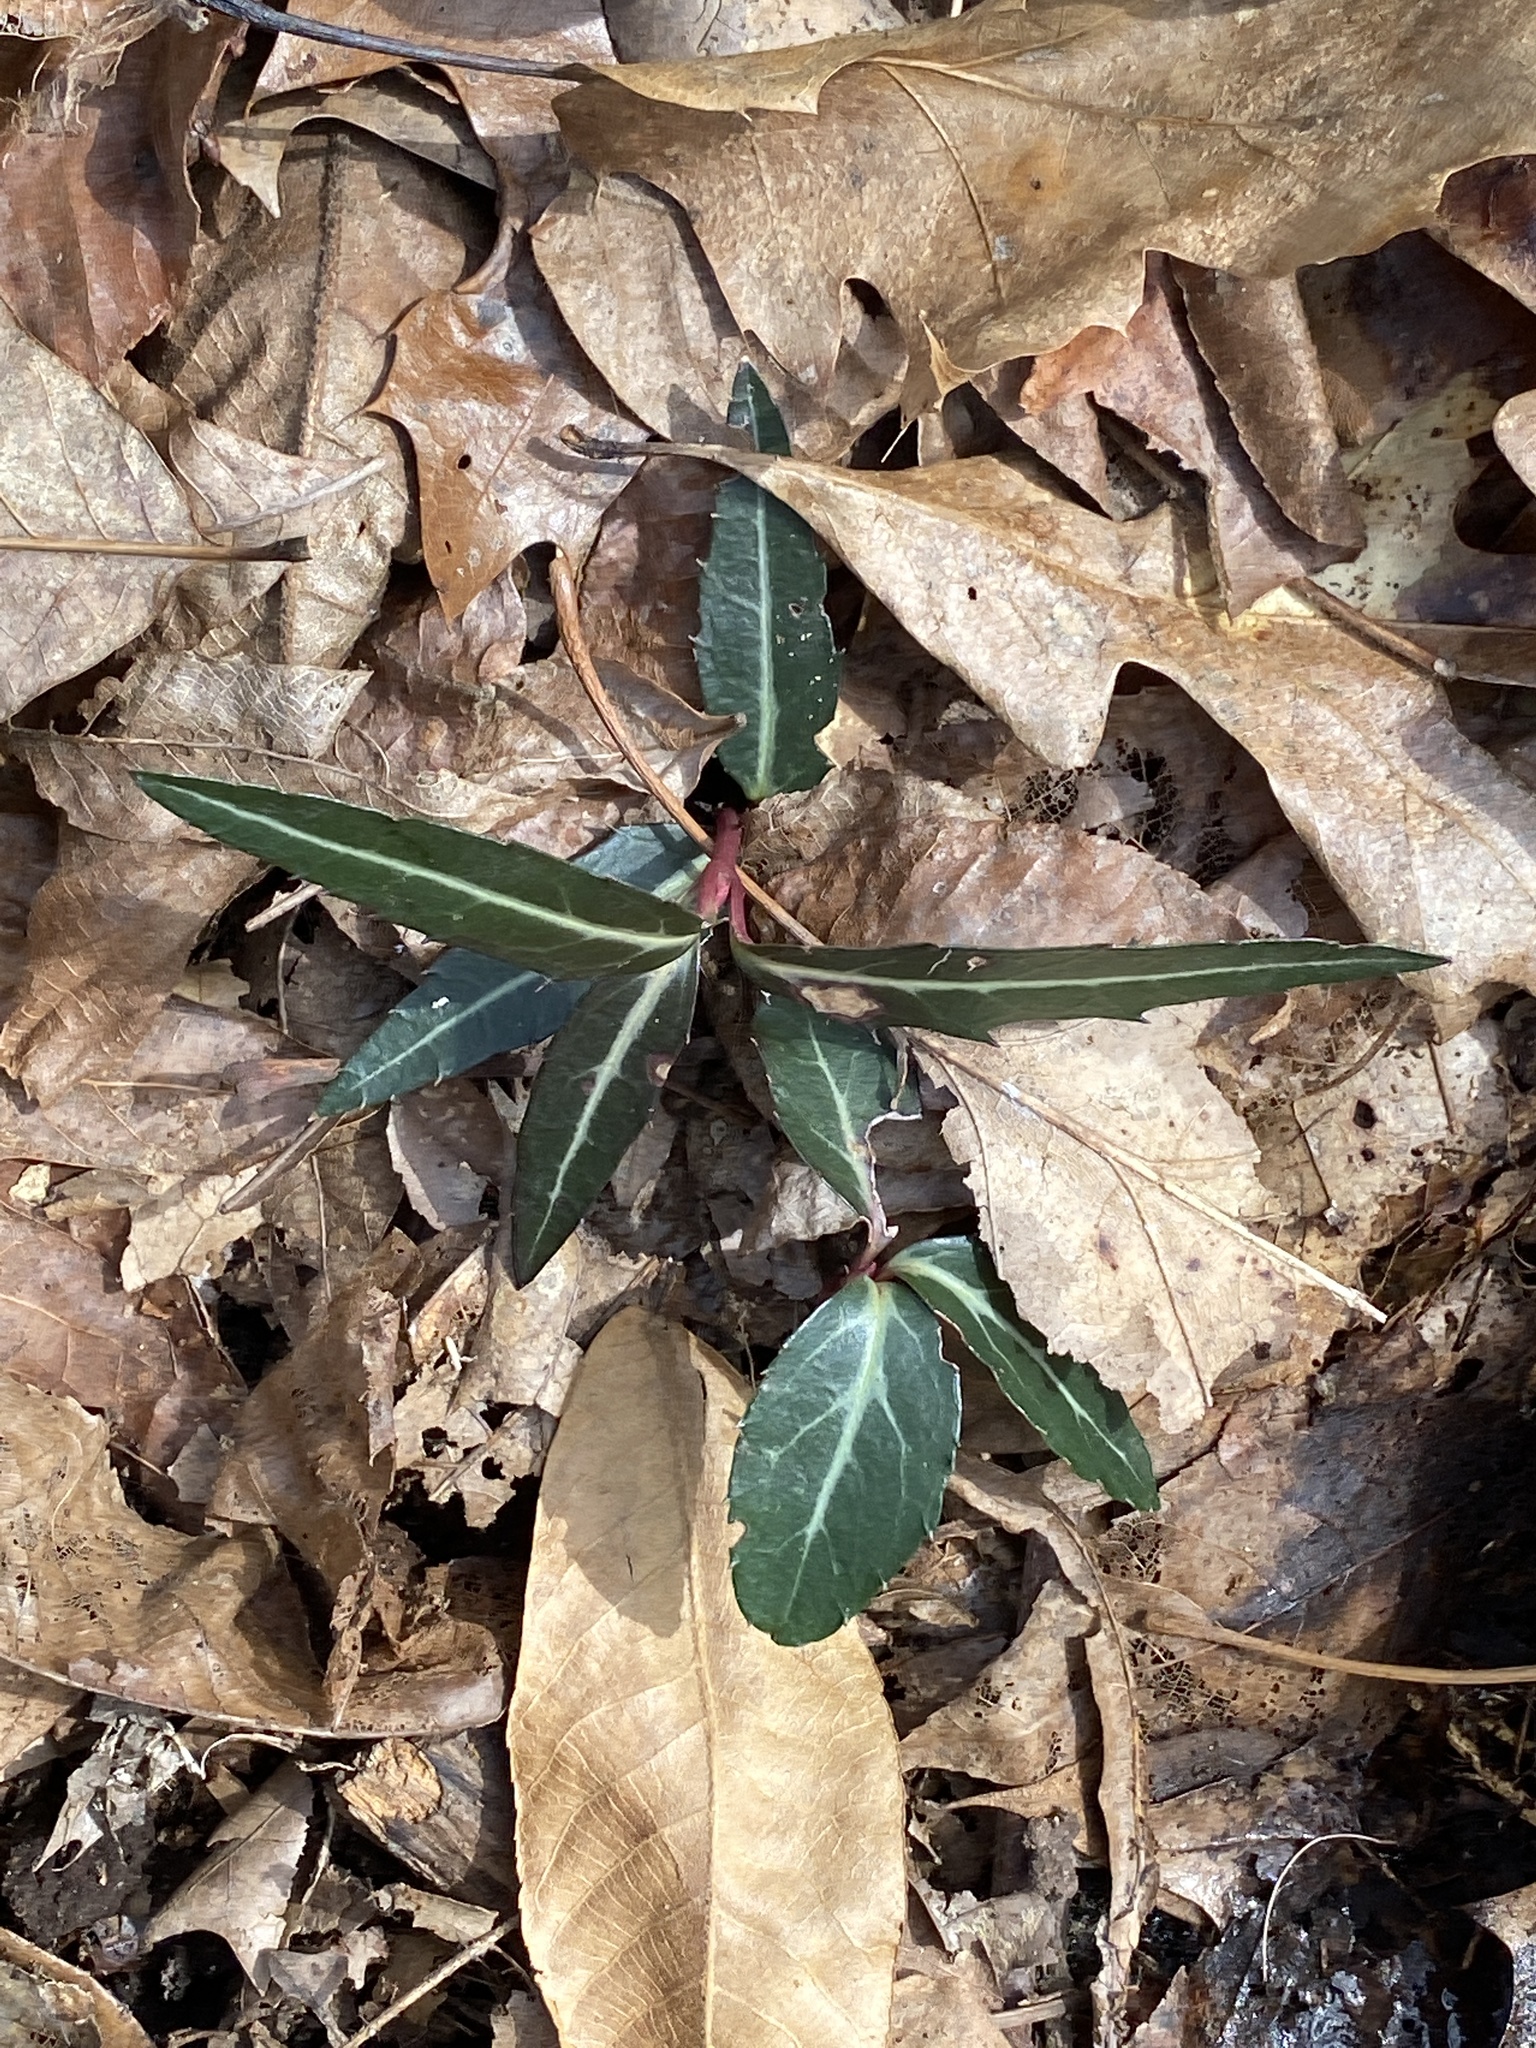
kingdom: Plantae
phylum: Tracheophyta
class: Magnoliopsida
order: Ericales
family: Ericaceae
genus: Chimaphila
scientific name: Chimaphila maculata
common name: Spotted pipsissewa
